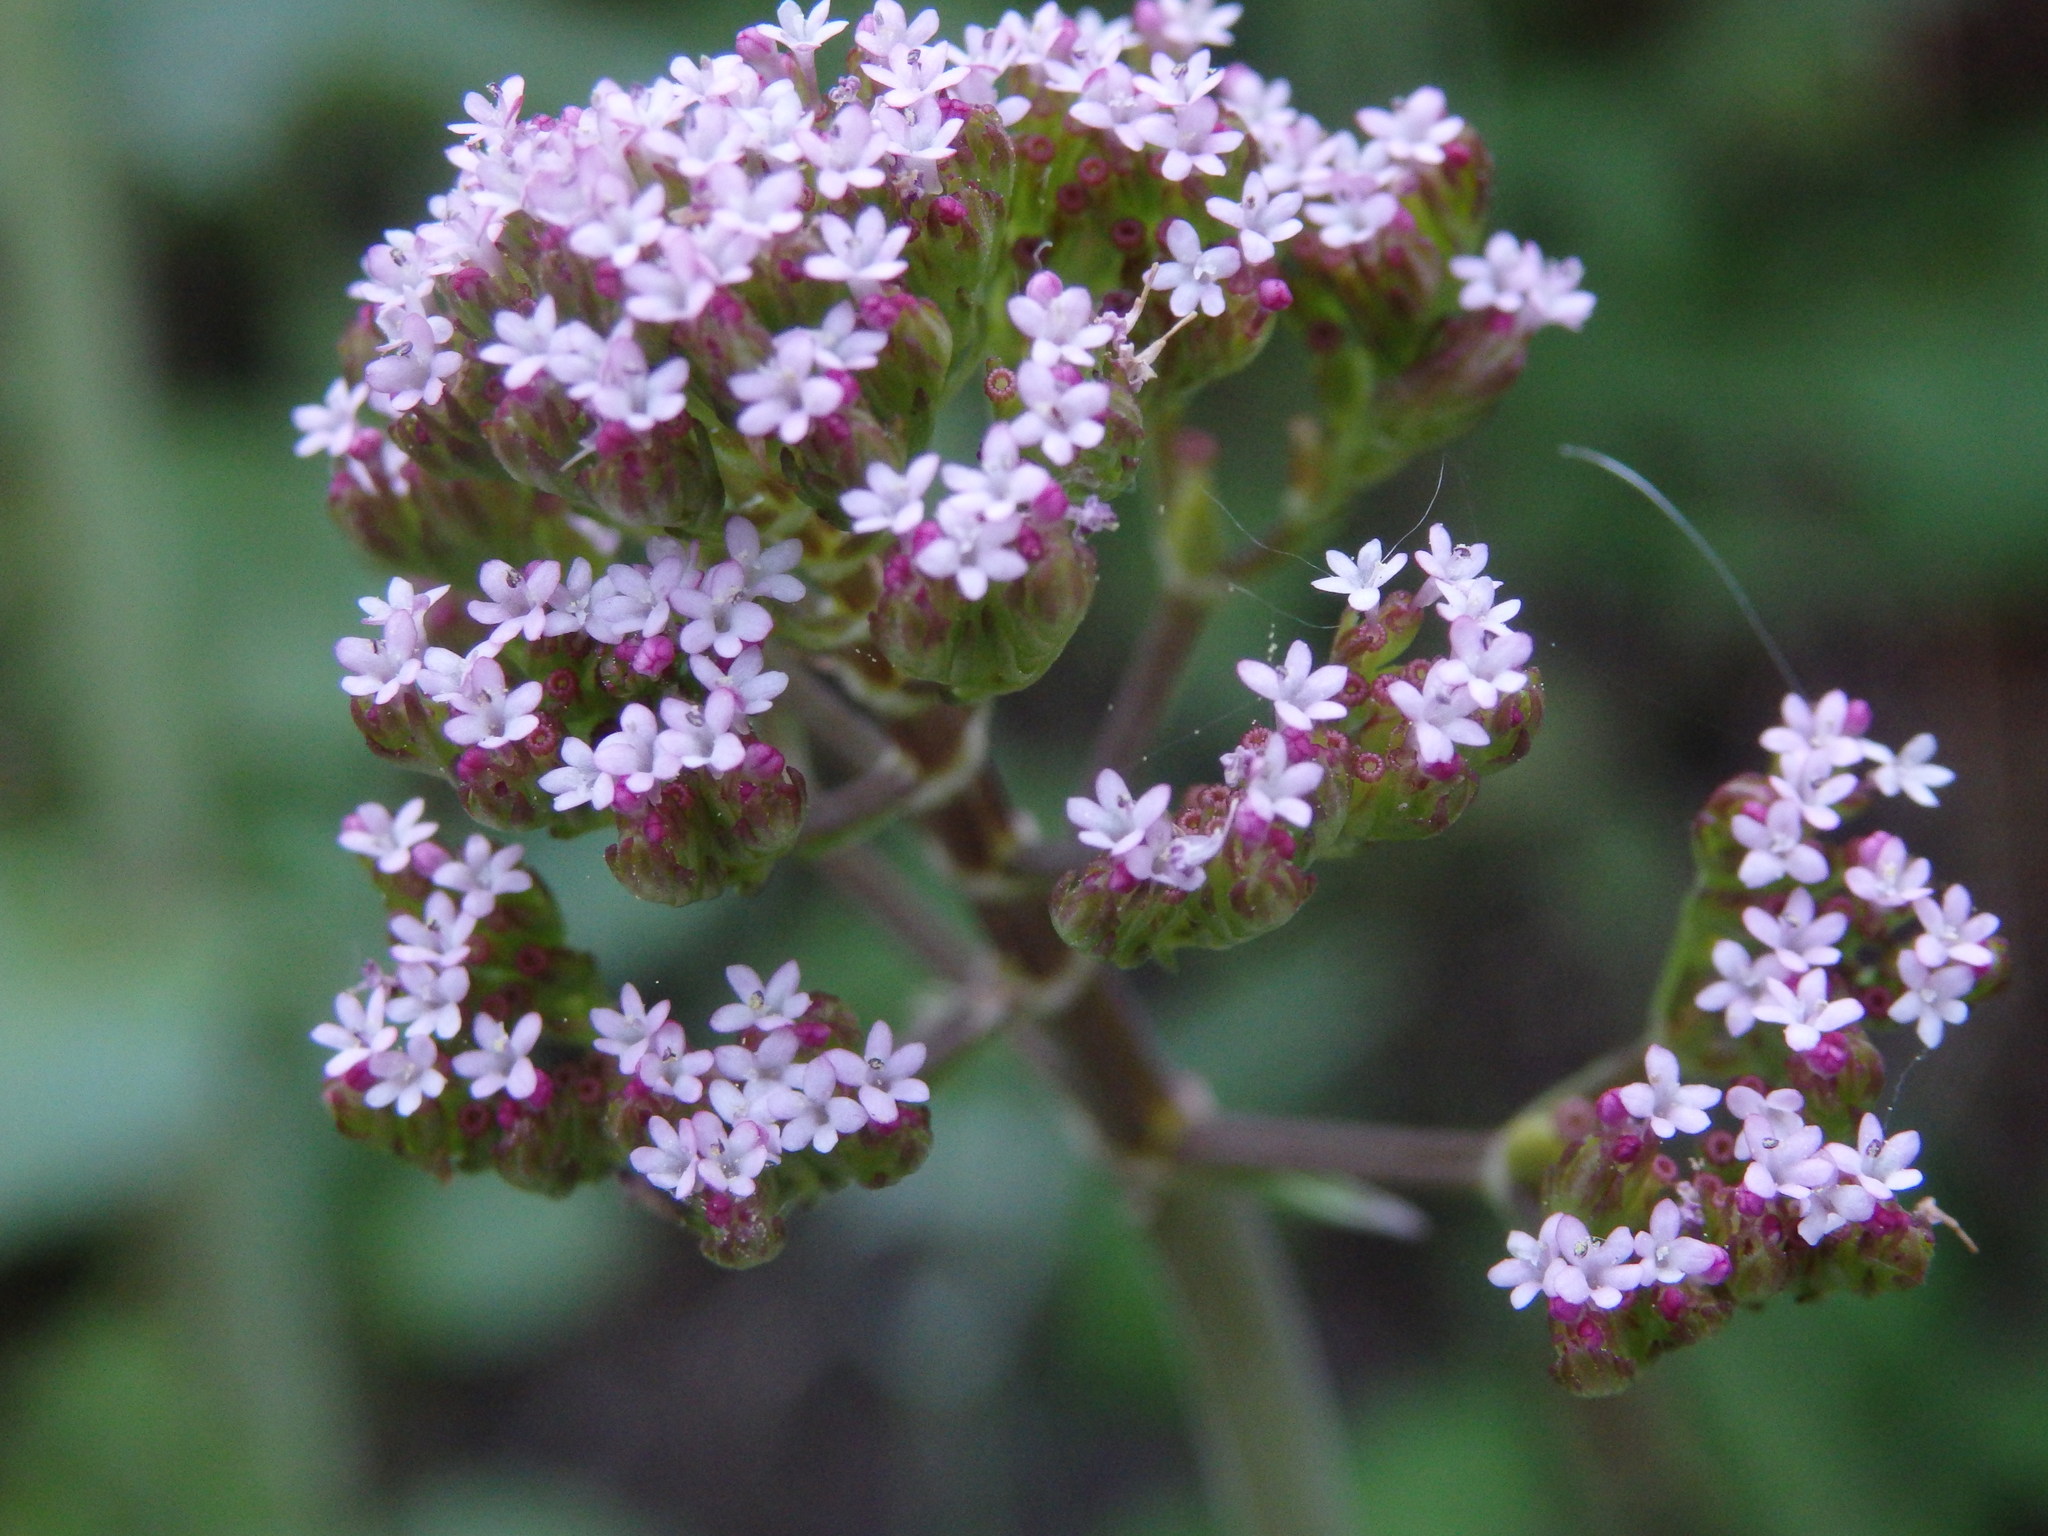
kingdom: Plantae
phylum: Tracheophyta
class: Magnoliopsida
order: Dipsacales
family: Caprifoliaceae
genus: Centranthus
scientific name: Centranthus calcitrapae
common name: Annual valerian
